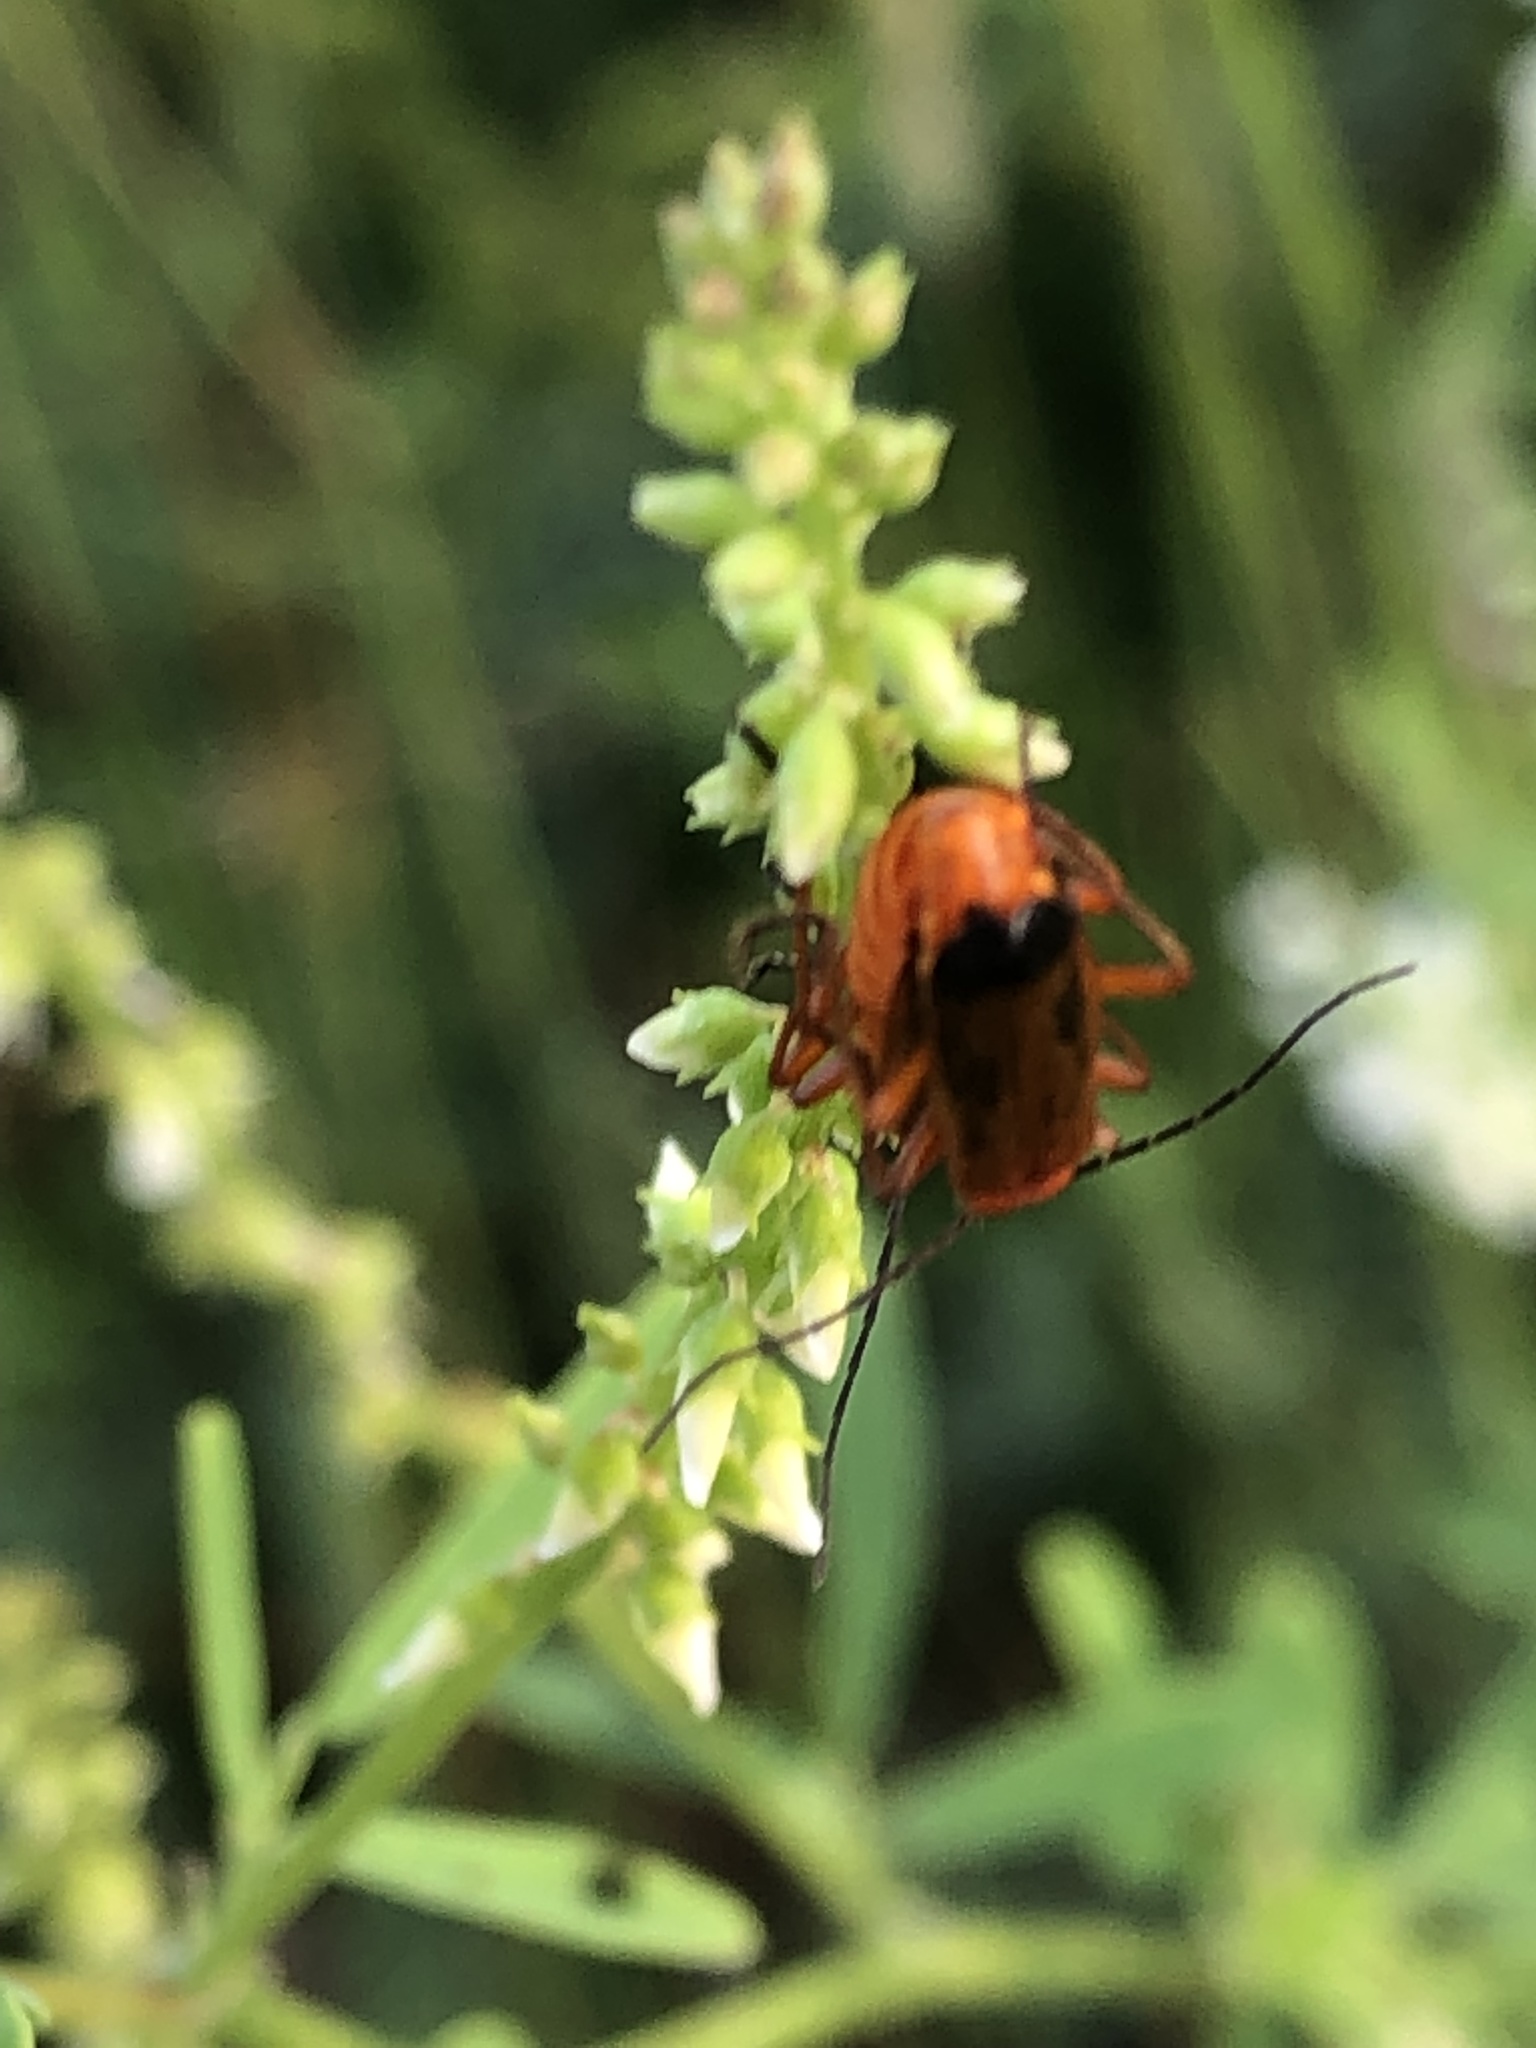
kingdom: Animalia
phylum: Arthropoda
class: Insecta
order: Coleoptera
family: Cantharidae
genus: Rhagonycha
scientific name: Rhagonycha fulva
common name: Common red soldier beetle
